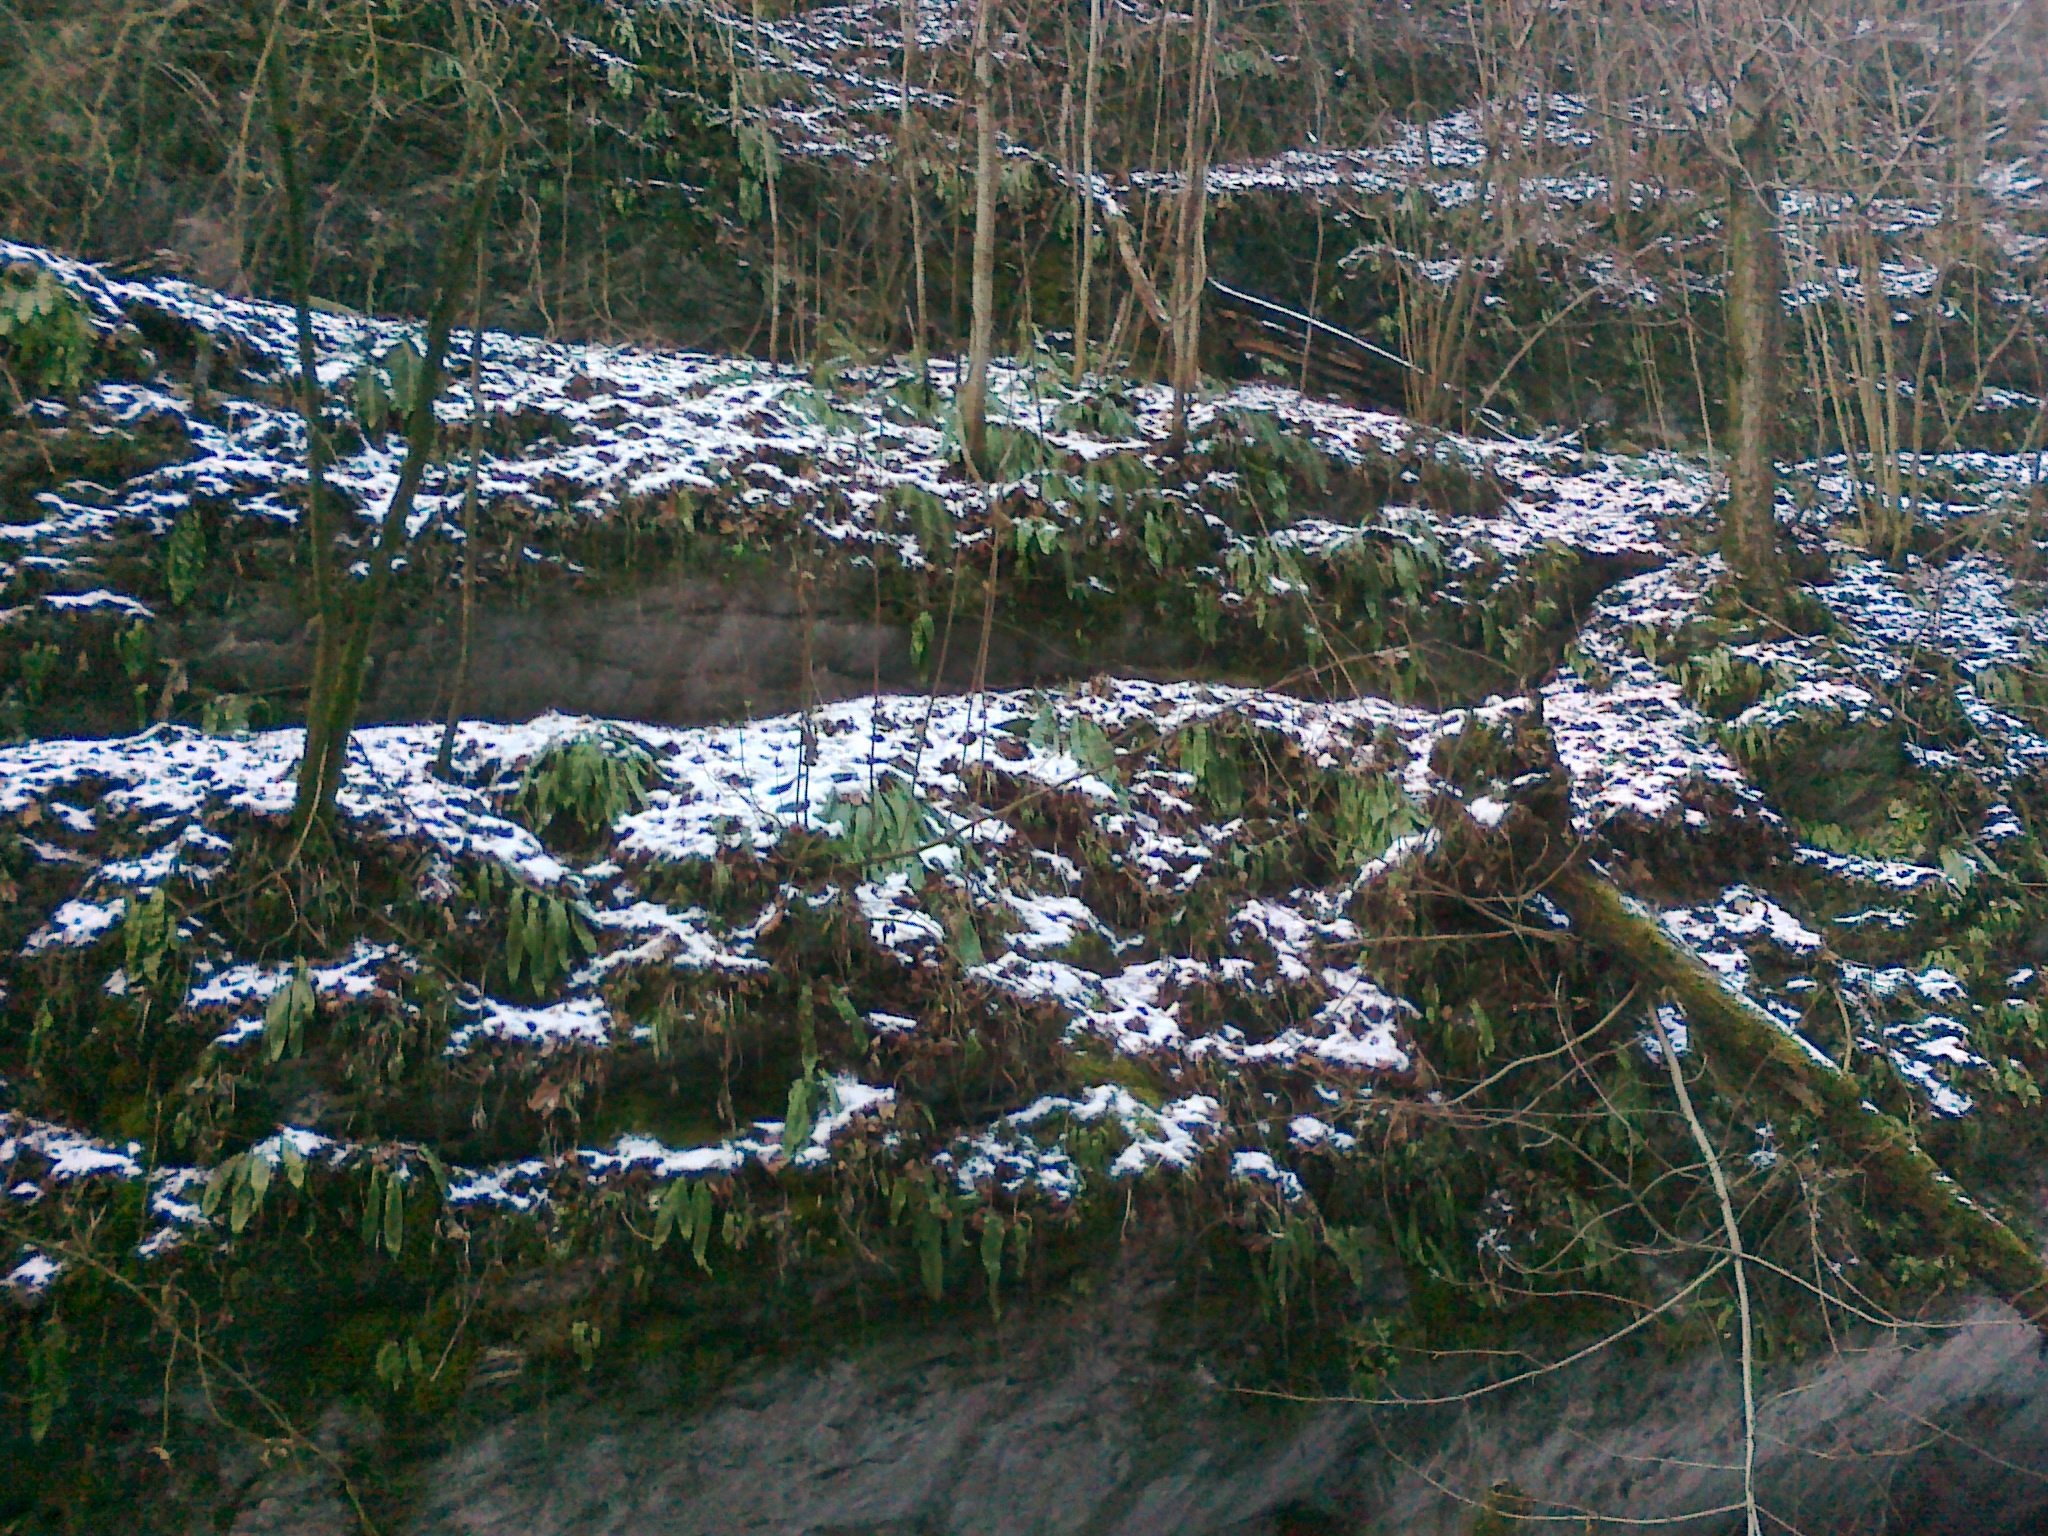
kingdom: Plantae
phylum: Tracheophyta
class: Polypodiopsida
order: Polypodiales
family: Aspleniaceae
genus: Asplenium
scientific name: Asplenium scolopendrium
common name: Hart's-tongue fern
